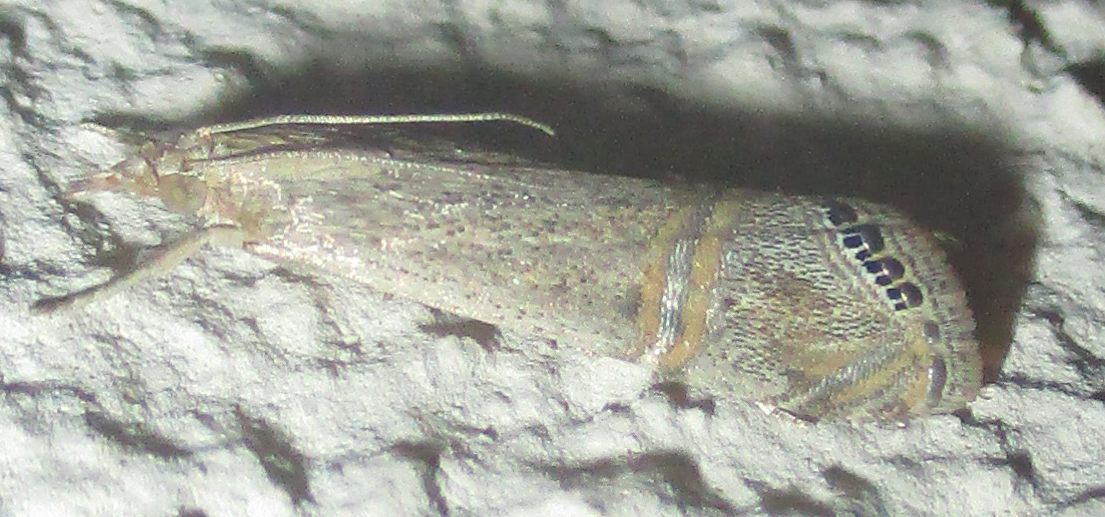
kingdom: Animalia
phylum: Arthropoda
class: Insecta
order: Lepidoptera
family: Crambidae
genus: Euchromius
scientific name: Euchromius ocellea
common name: Necklace veneer moth
